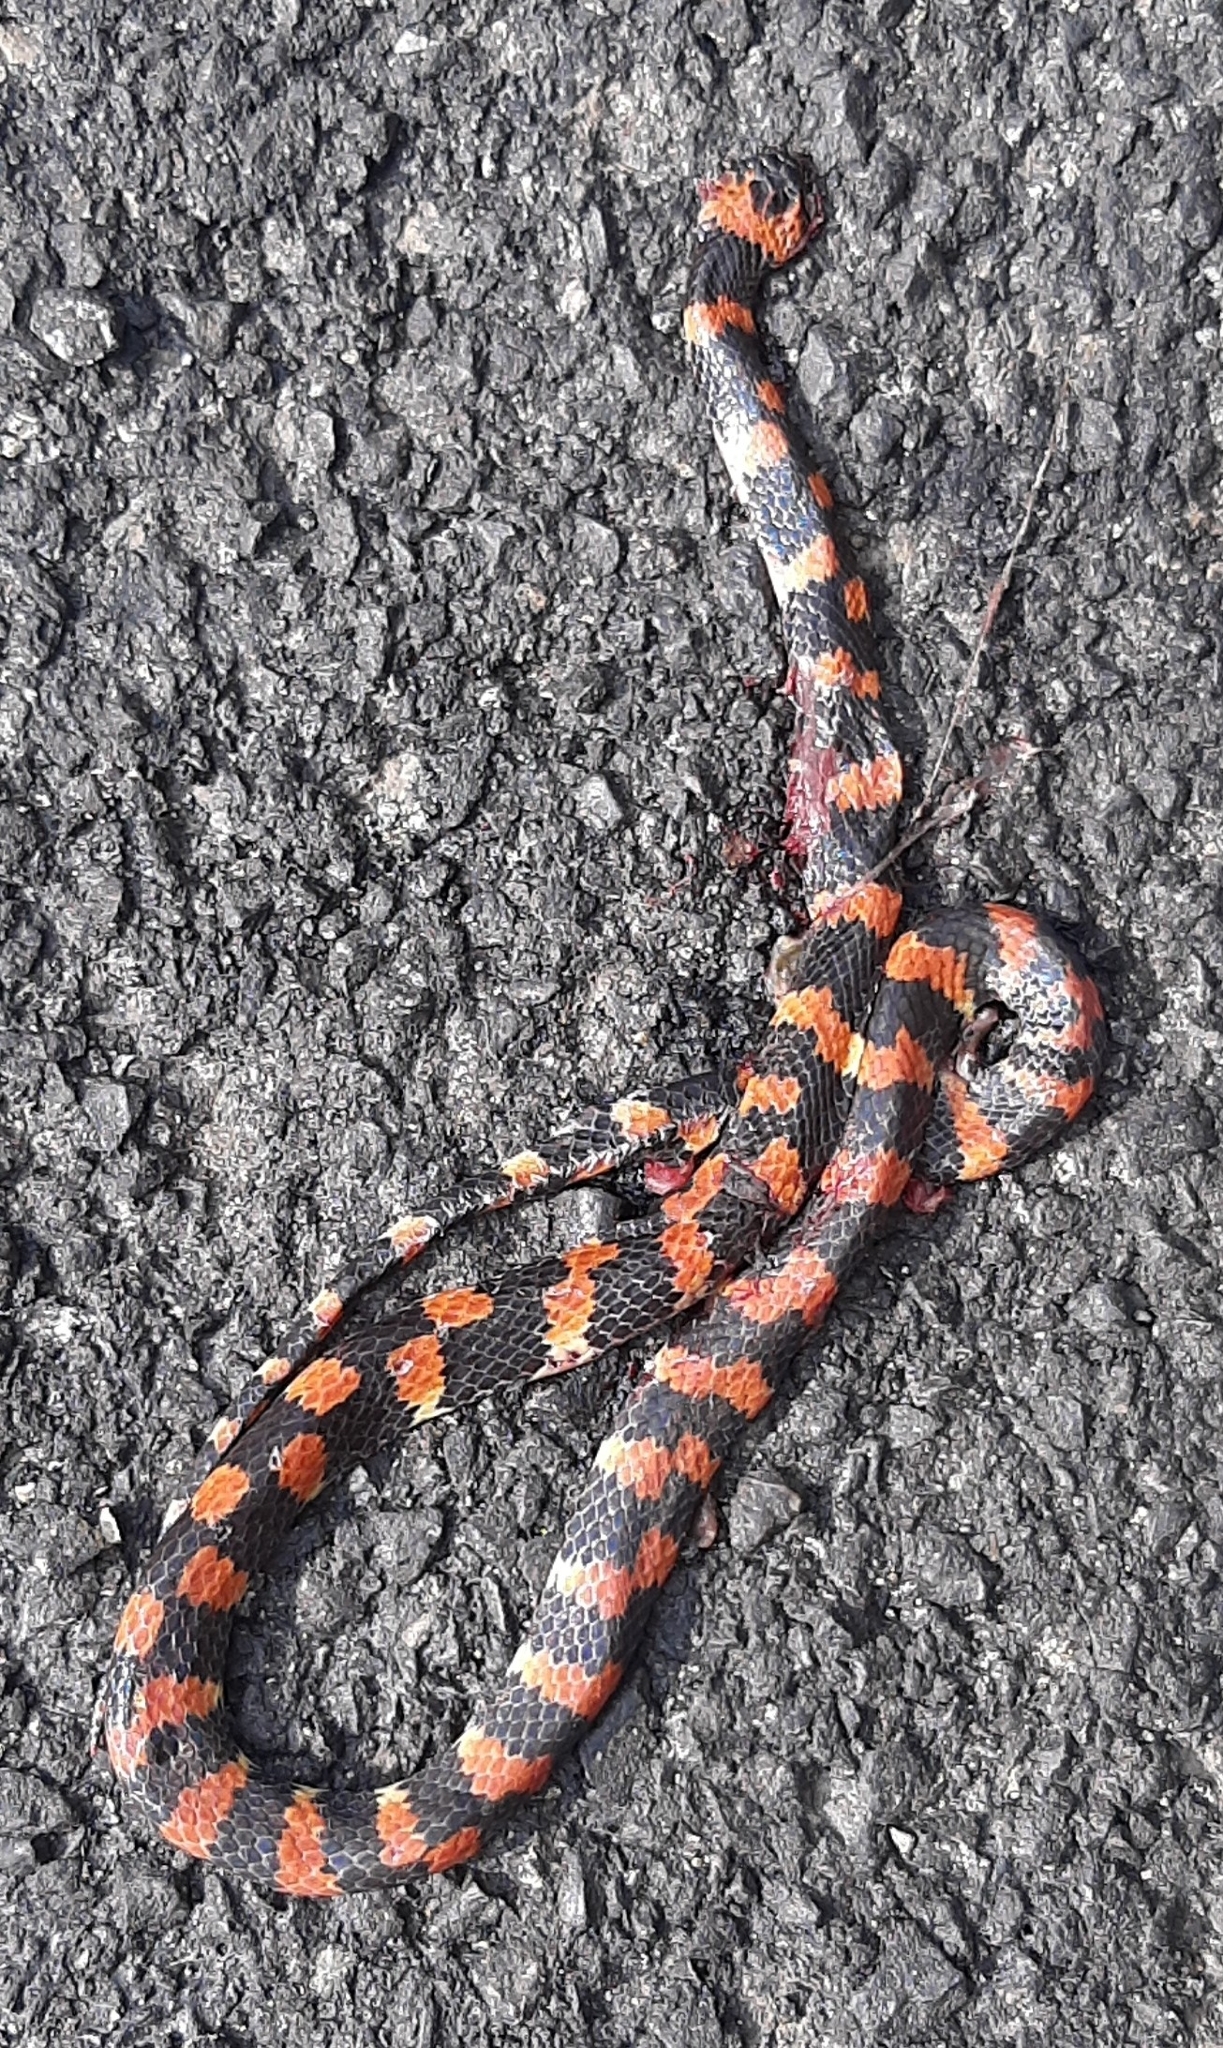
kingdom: Animalia
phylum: Chordata
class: Squamata
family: Colubridae
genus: Oxyrhopus
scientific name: Oxyrhopus petolarius
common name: Forest flame snake
